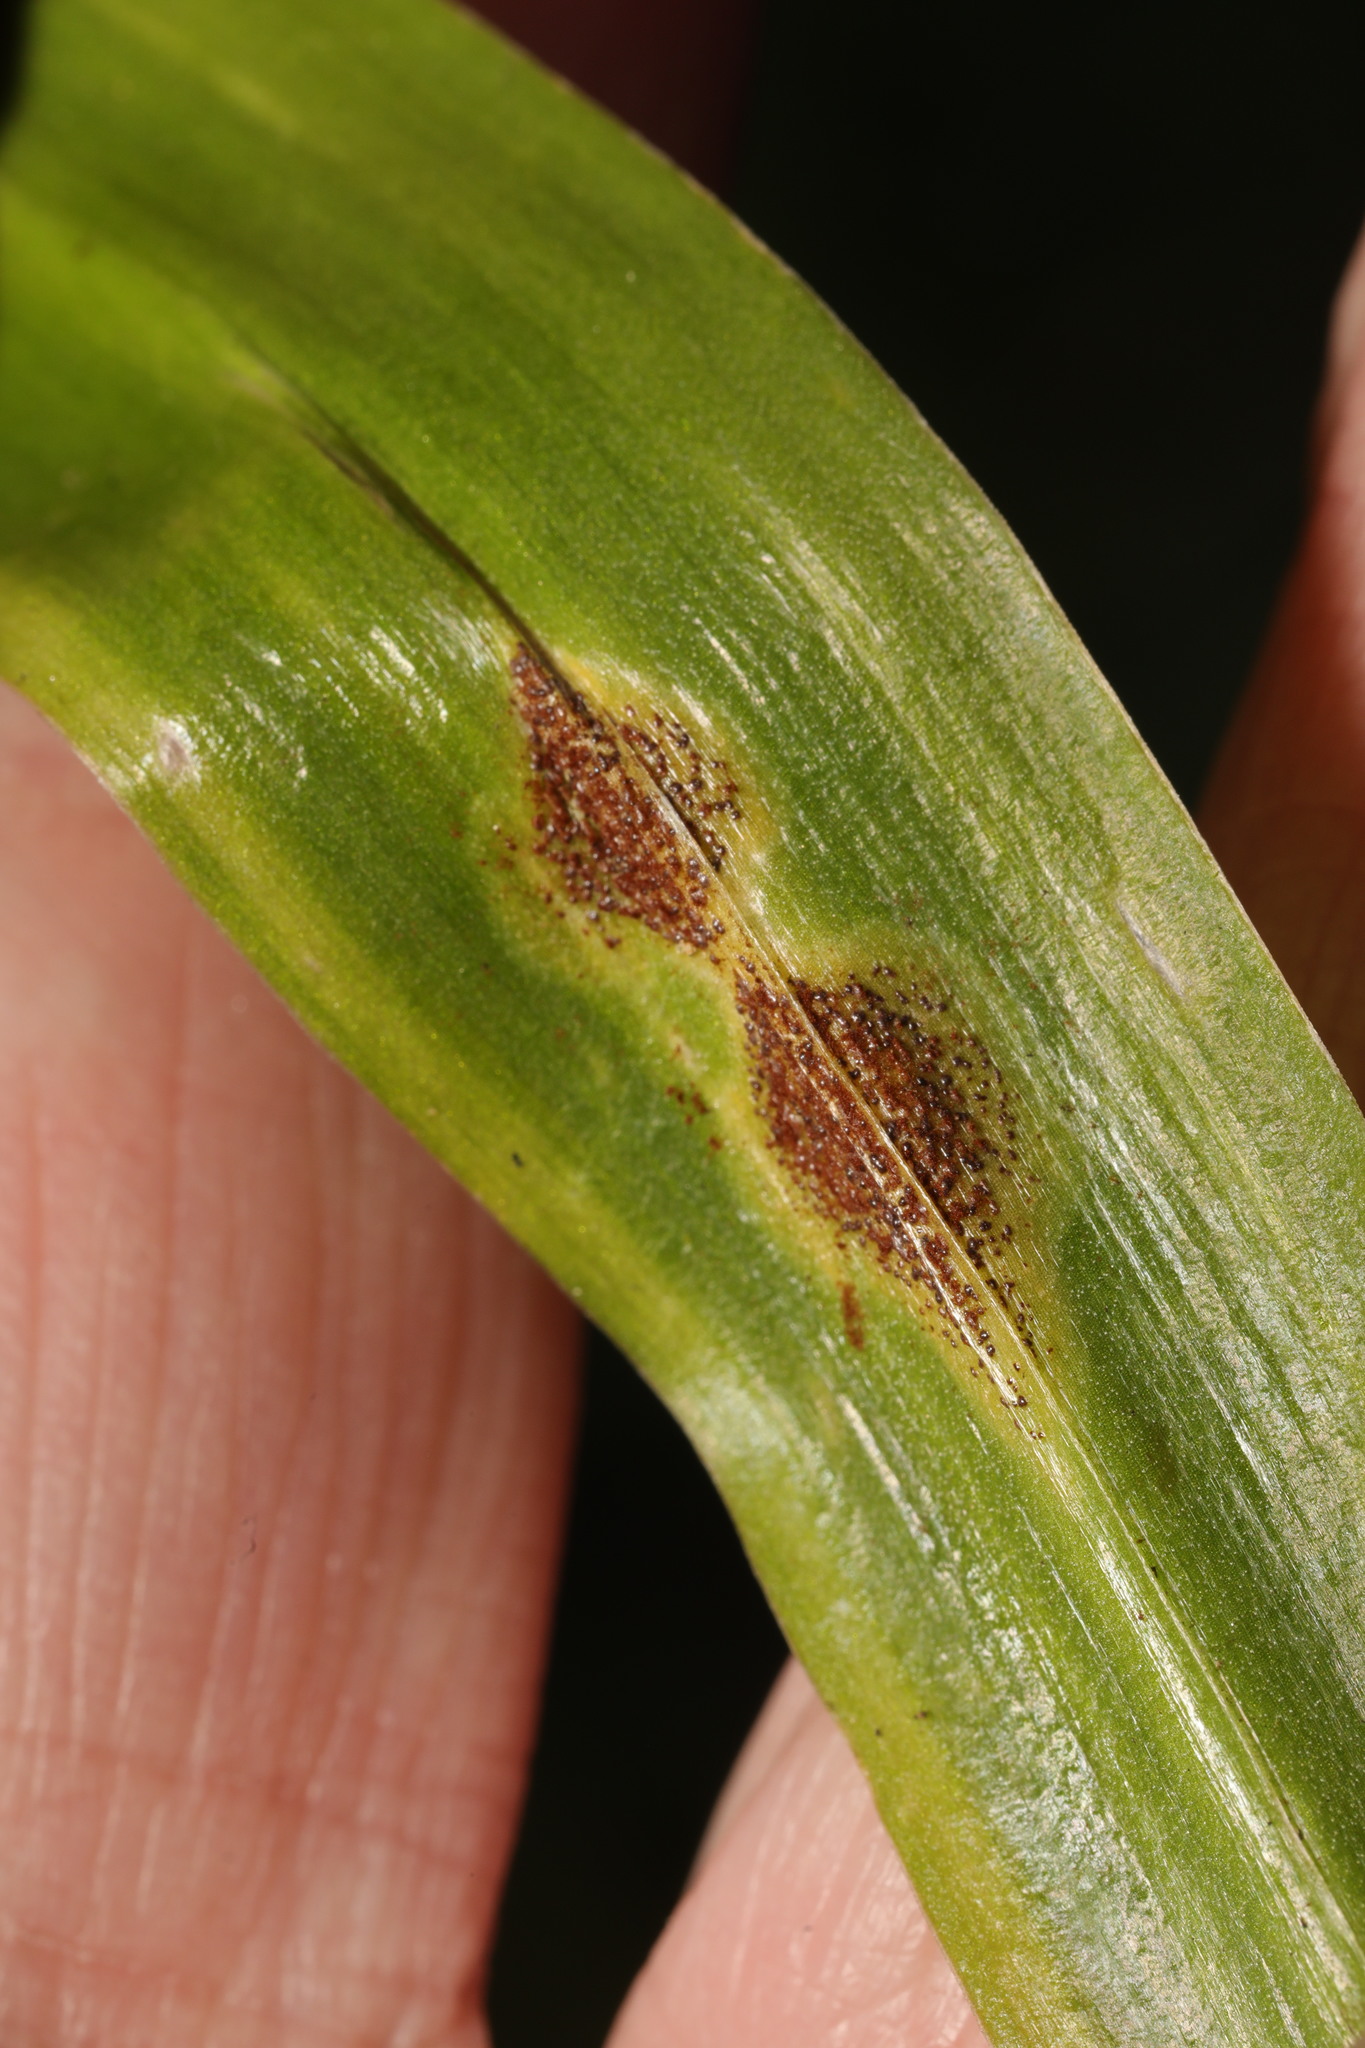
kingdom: Fungi
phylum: Basidiomycota
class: Pucciniomycetes
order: Pucciniales
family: Pucciniaceae
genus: Uromyces
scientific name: Uromyces hyacinthi
